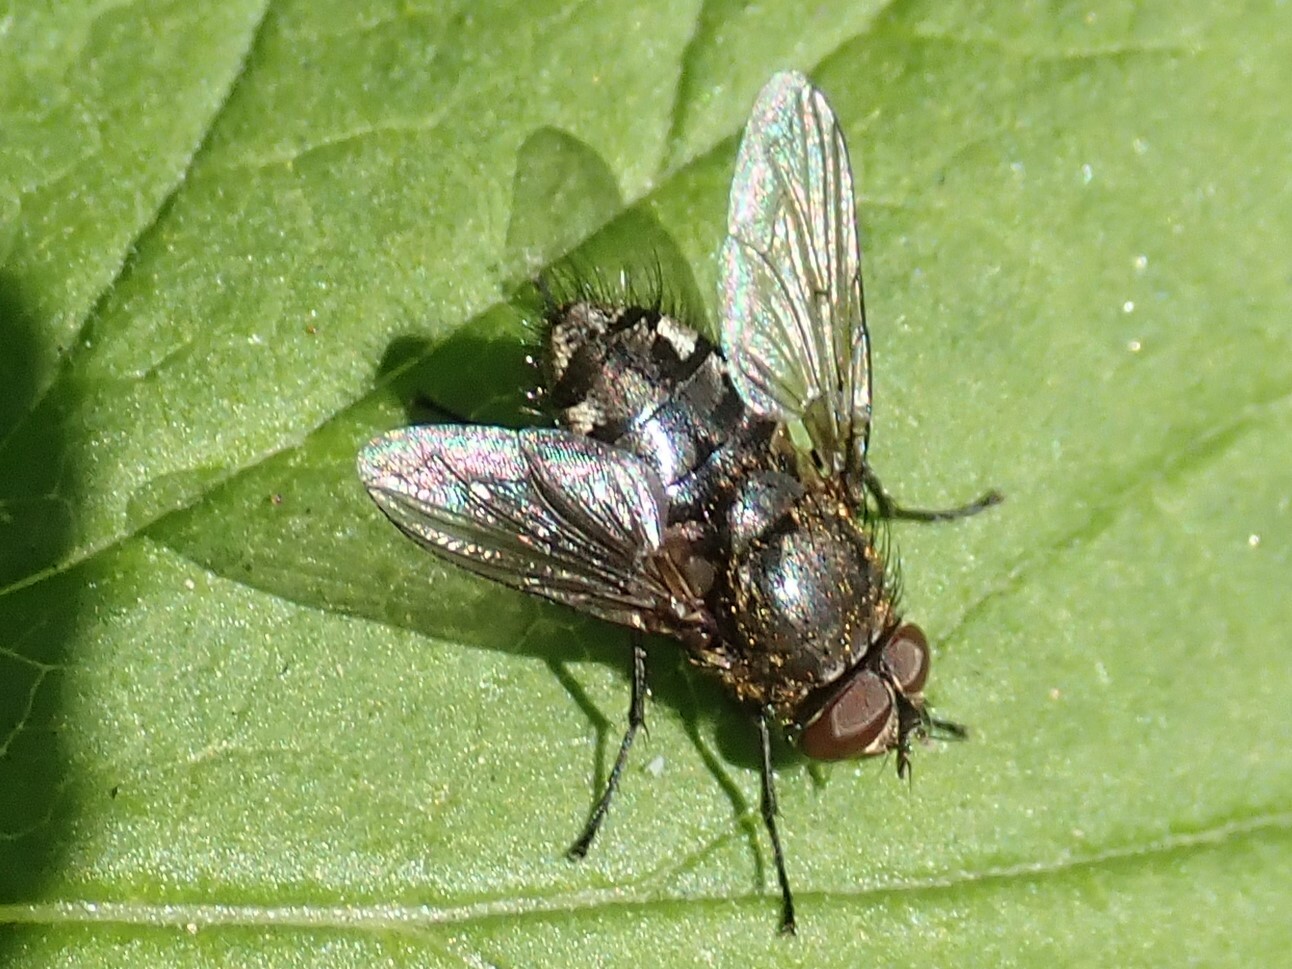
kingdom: Animalia
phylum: Arthropoda
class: Insecta
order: Diptera
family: Polleniidae
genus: Pollenia
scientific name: Pollenia
